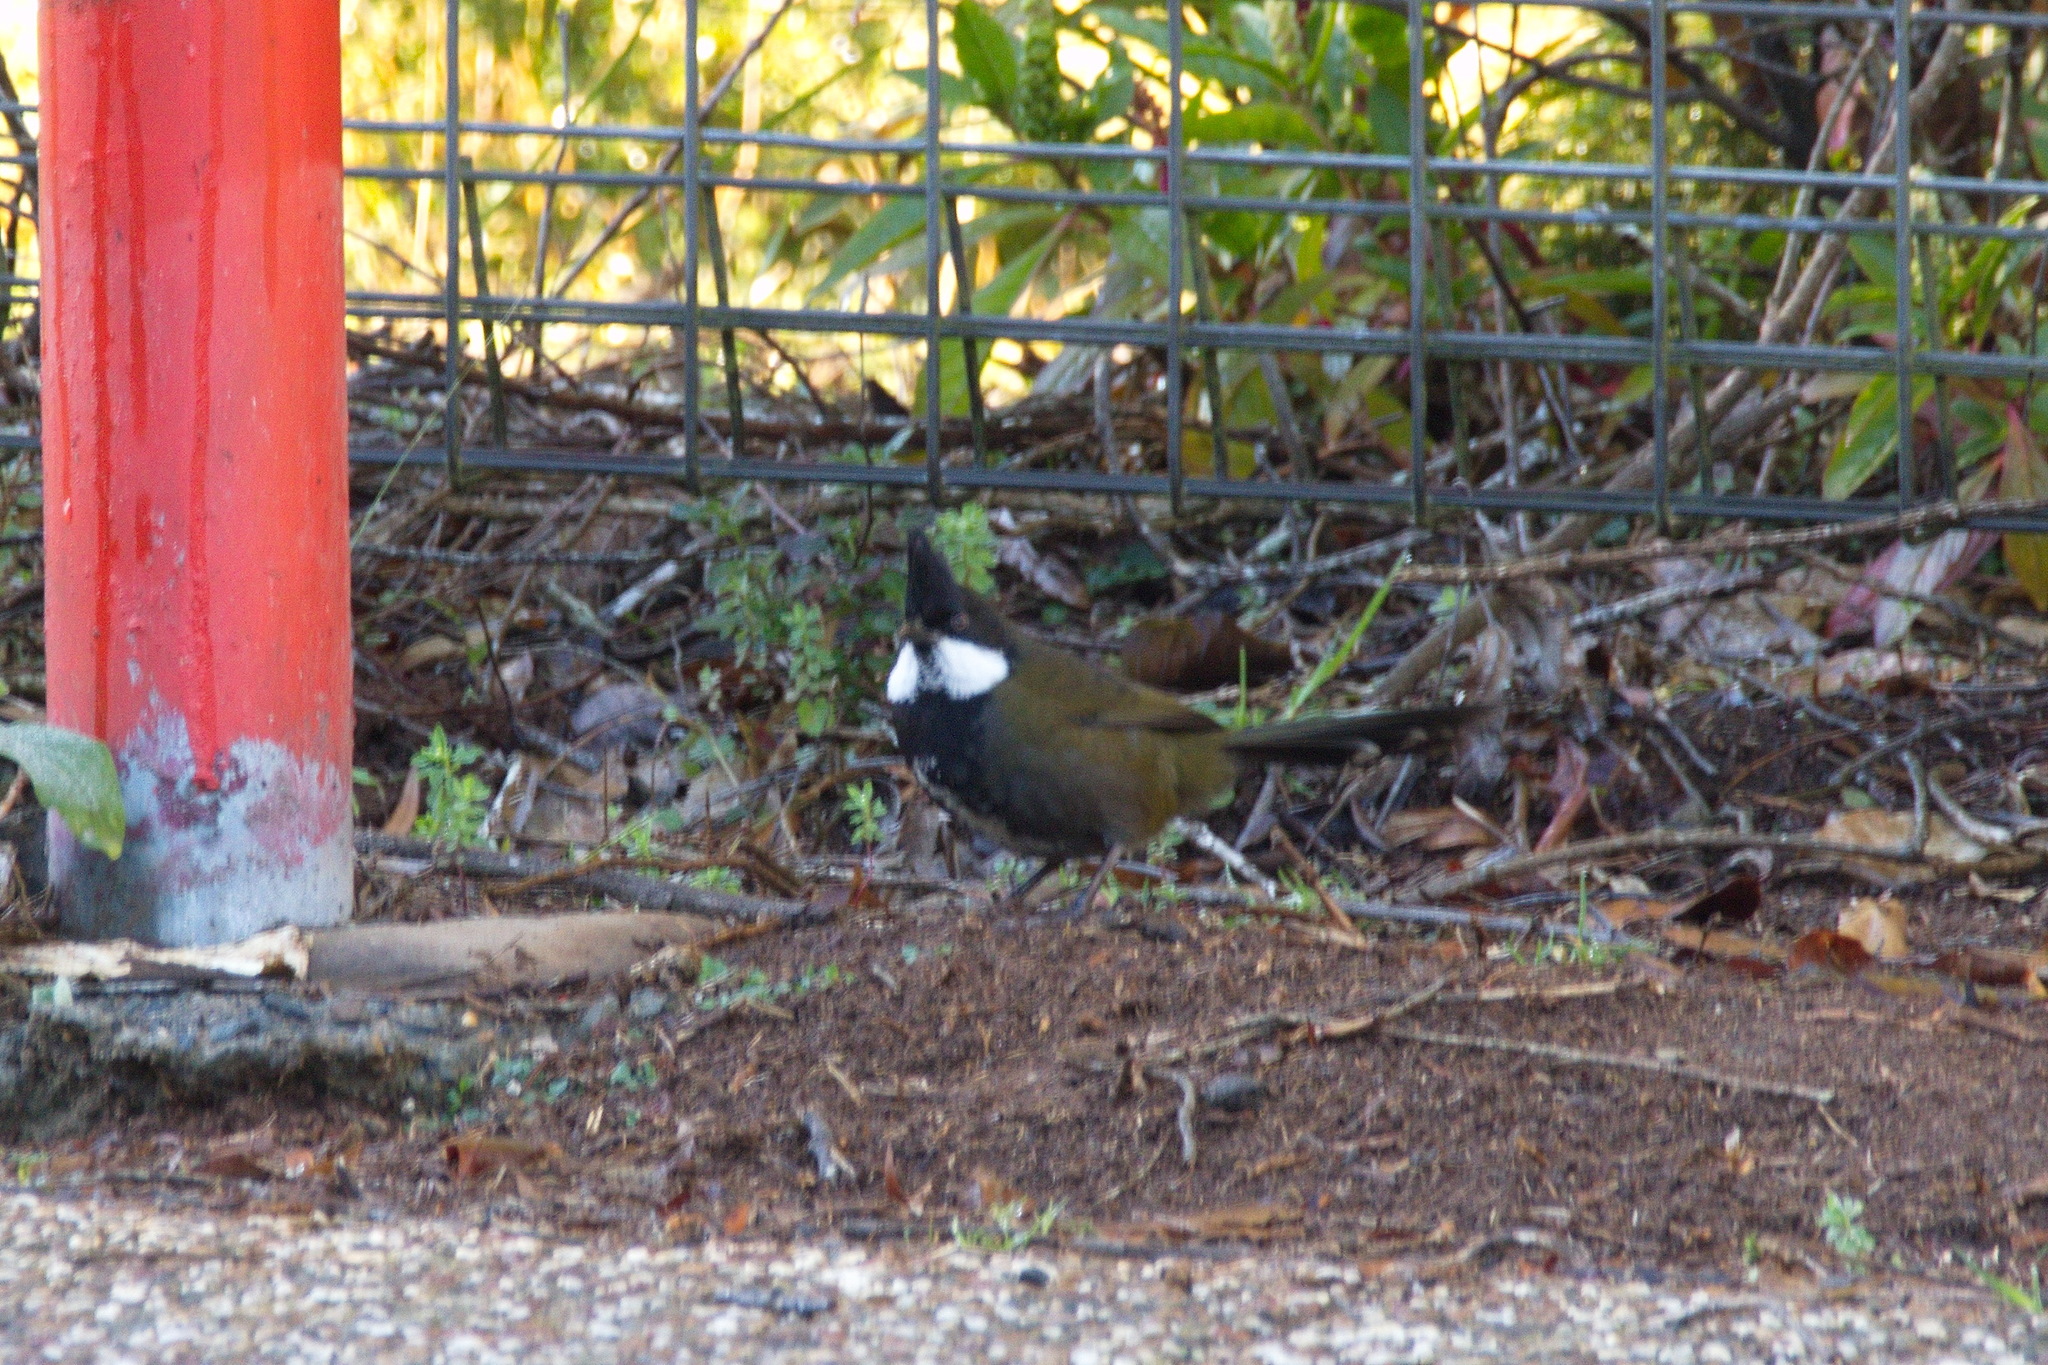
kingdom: Animalia
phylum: Chordata
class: Aves
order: Passeriformes
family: Psophodidae
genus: Psophodes
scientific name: Psophodes olivaceus
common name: Eastern whipbird
